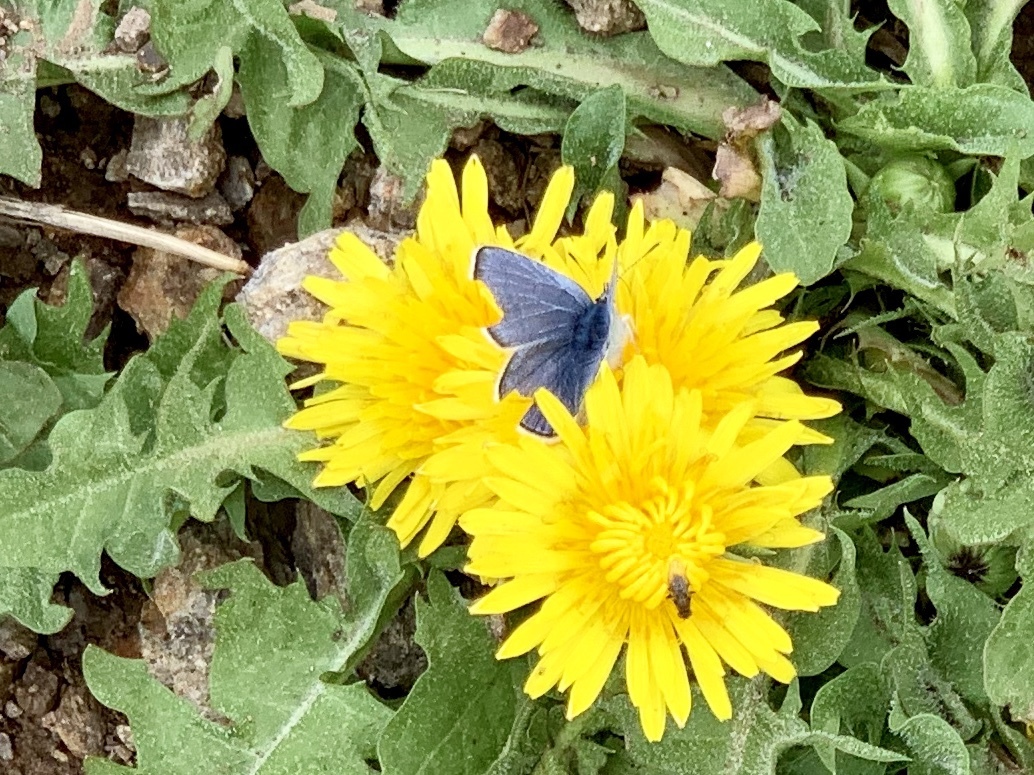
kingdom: Animalia
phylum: Arthropoda
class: Insecta
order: Lepidoptera
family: Lycaenidae
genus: Glaucopsyche
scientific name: Glaucopsyche lygdamus
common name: Silvery blue
